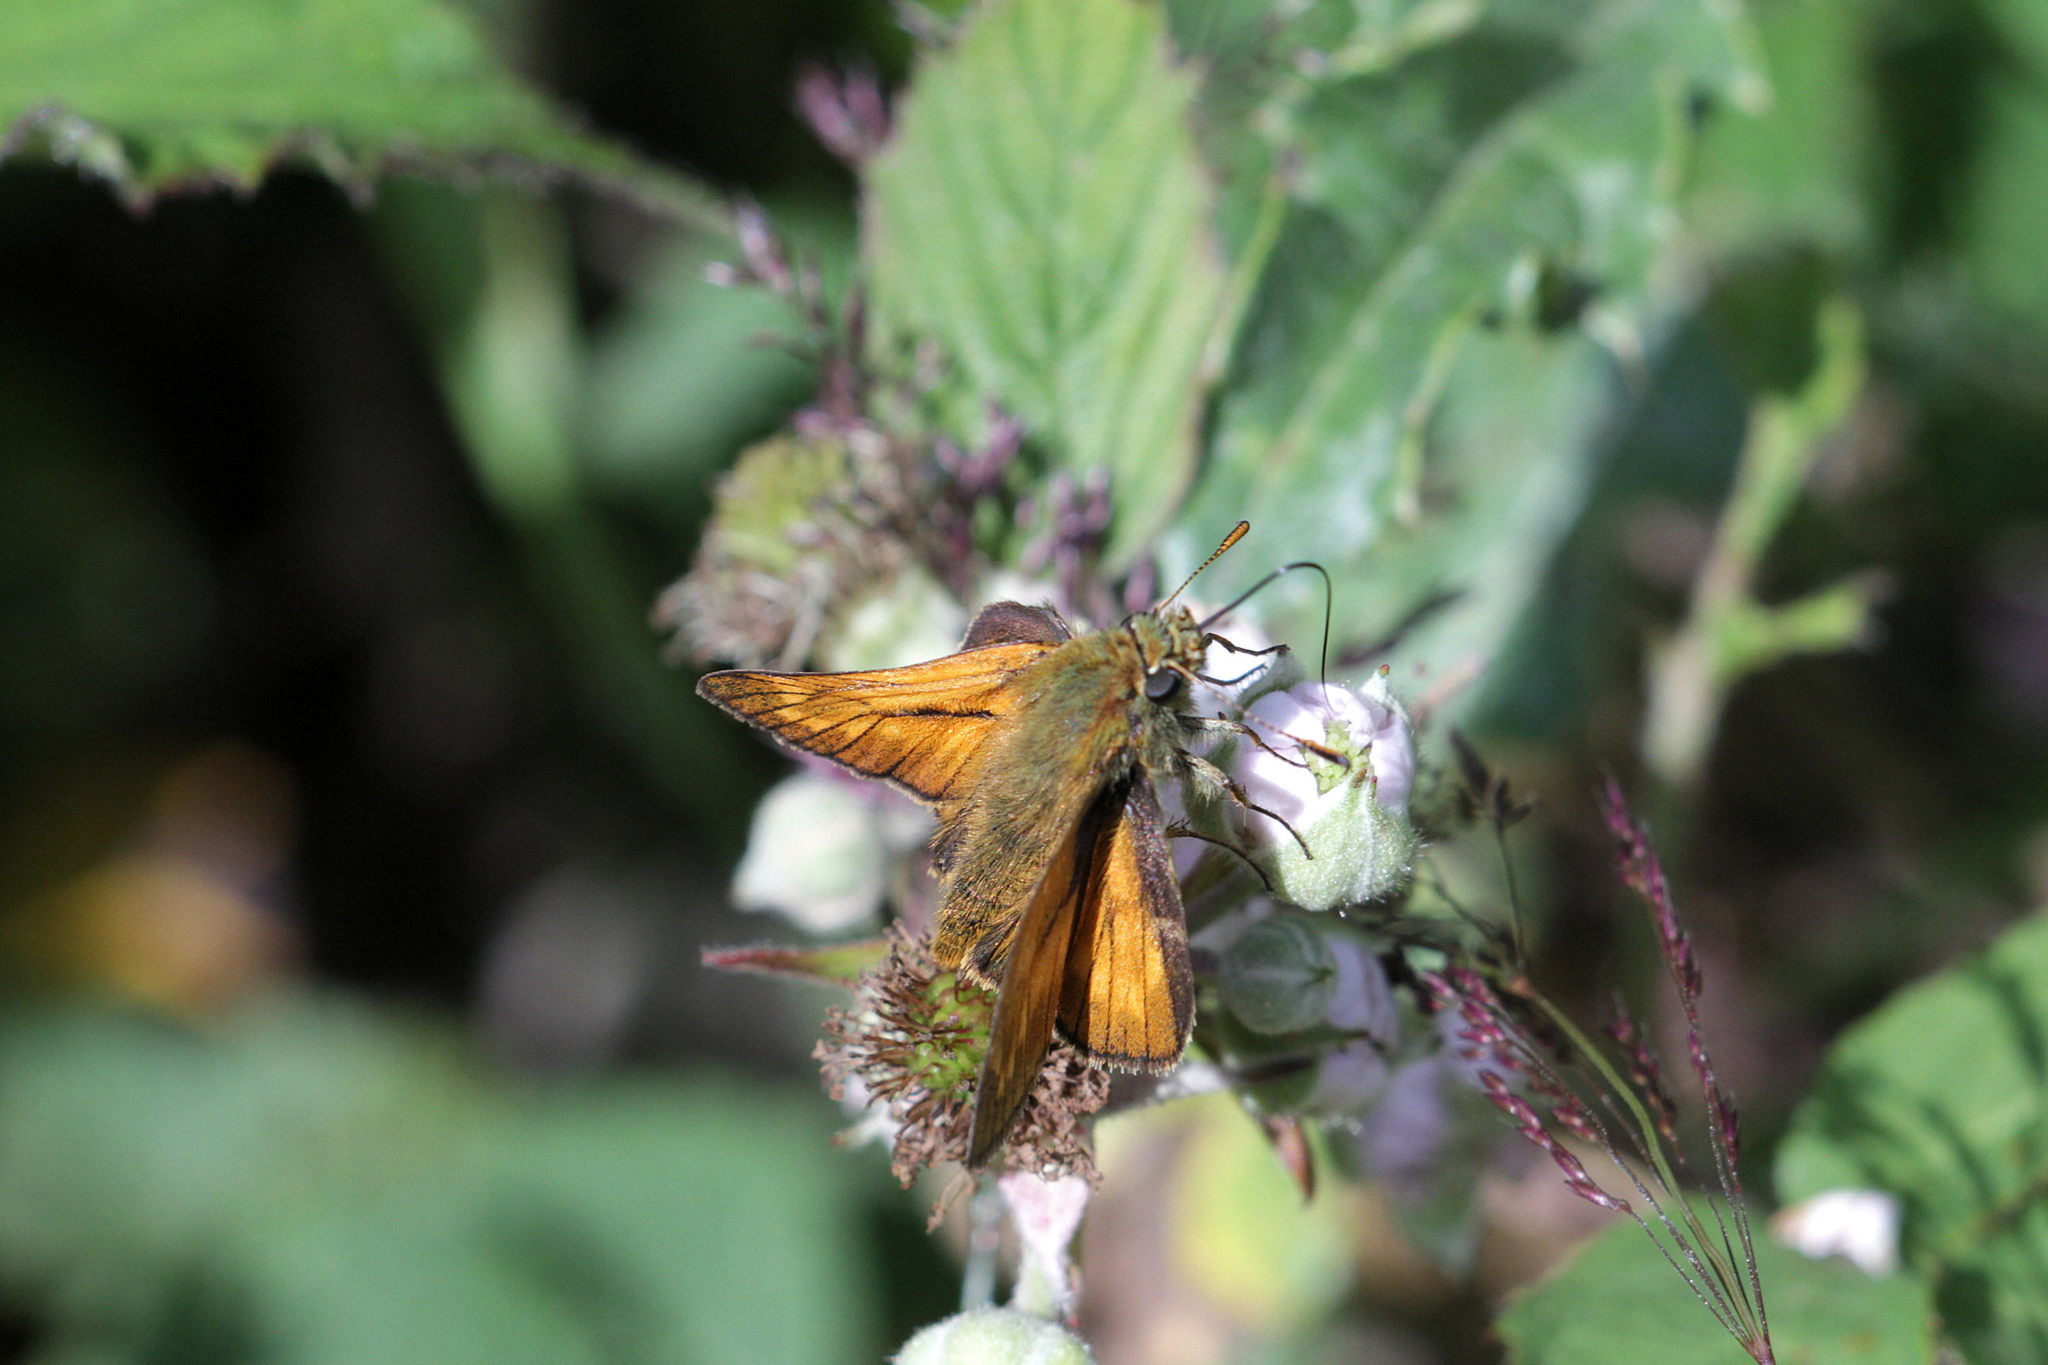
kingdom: Animalia
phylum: Arthropoda
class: Insecta
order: Lepidoptera
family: Hesperiidae
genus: Ochlodes
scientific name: Ochlodes venata
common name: Large skipper
